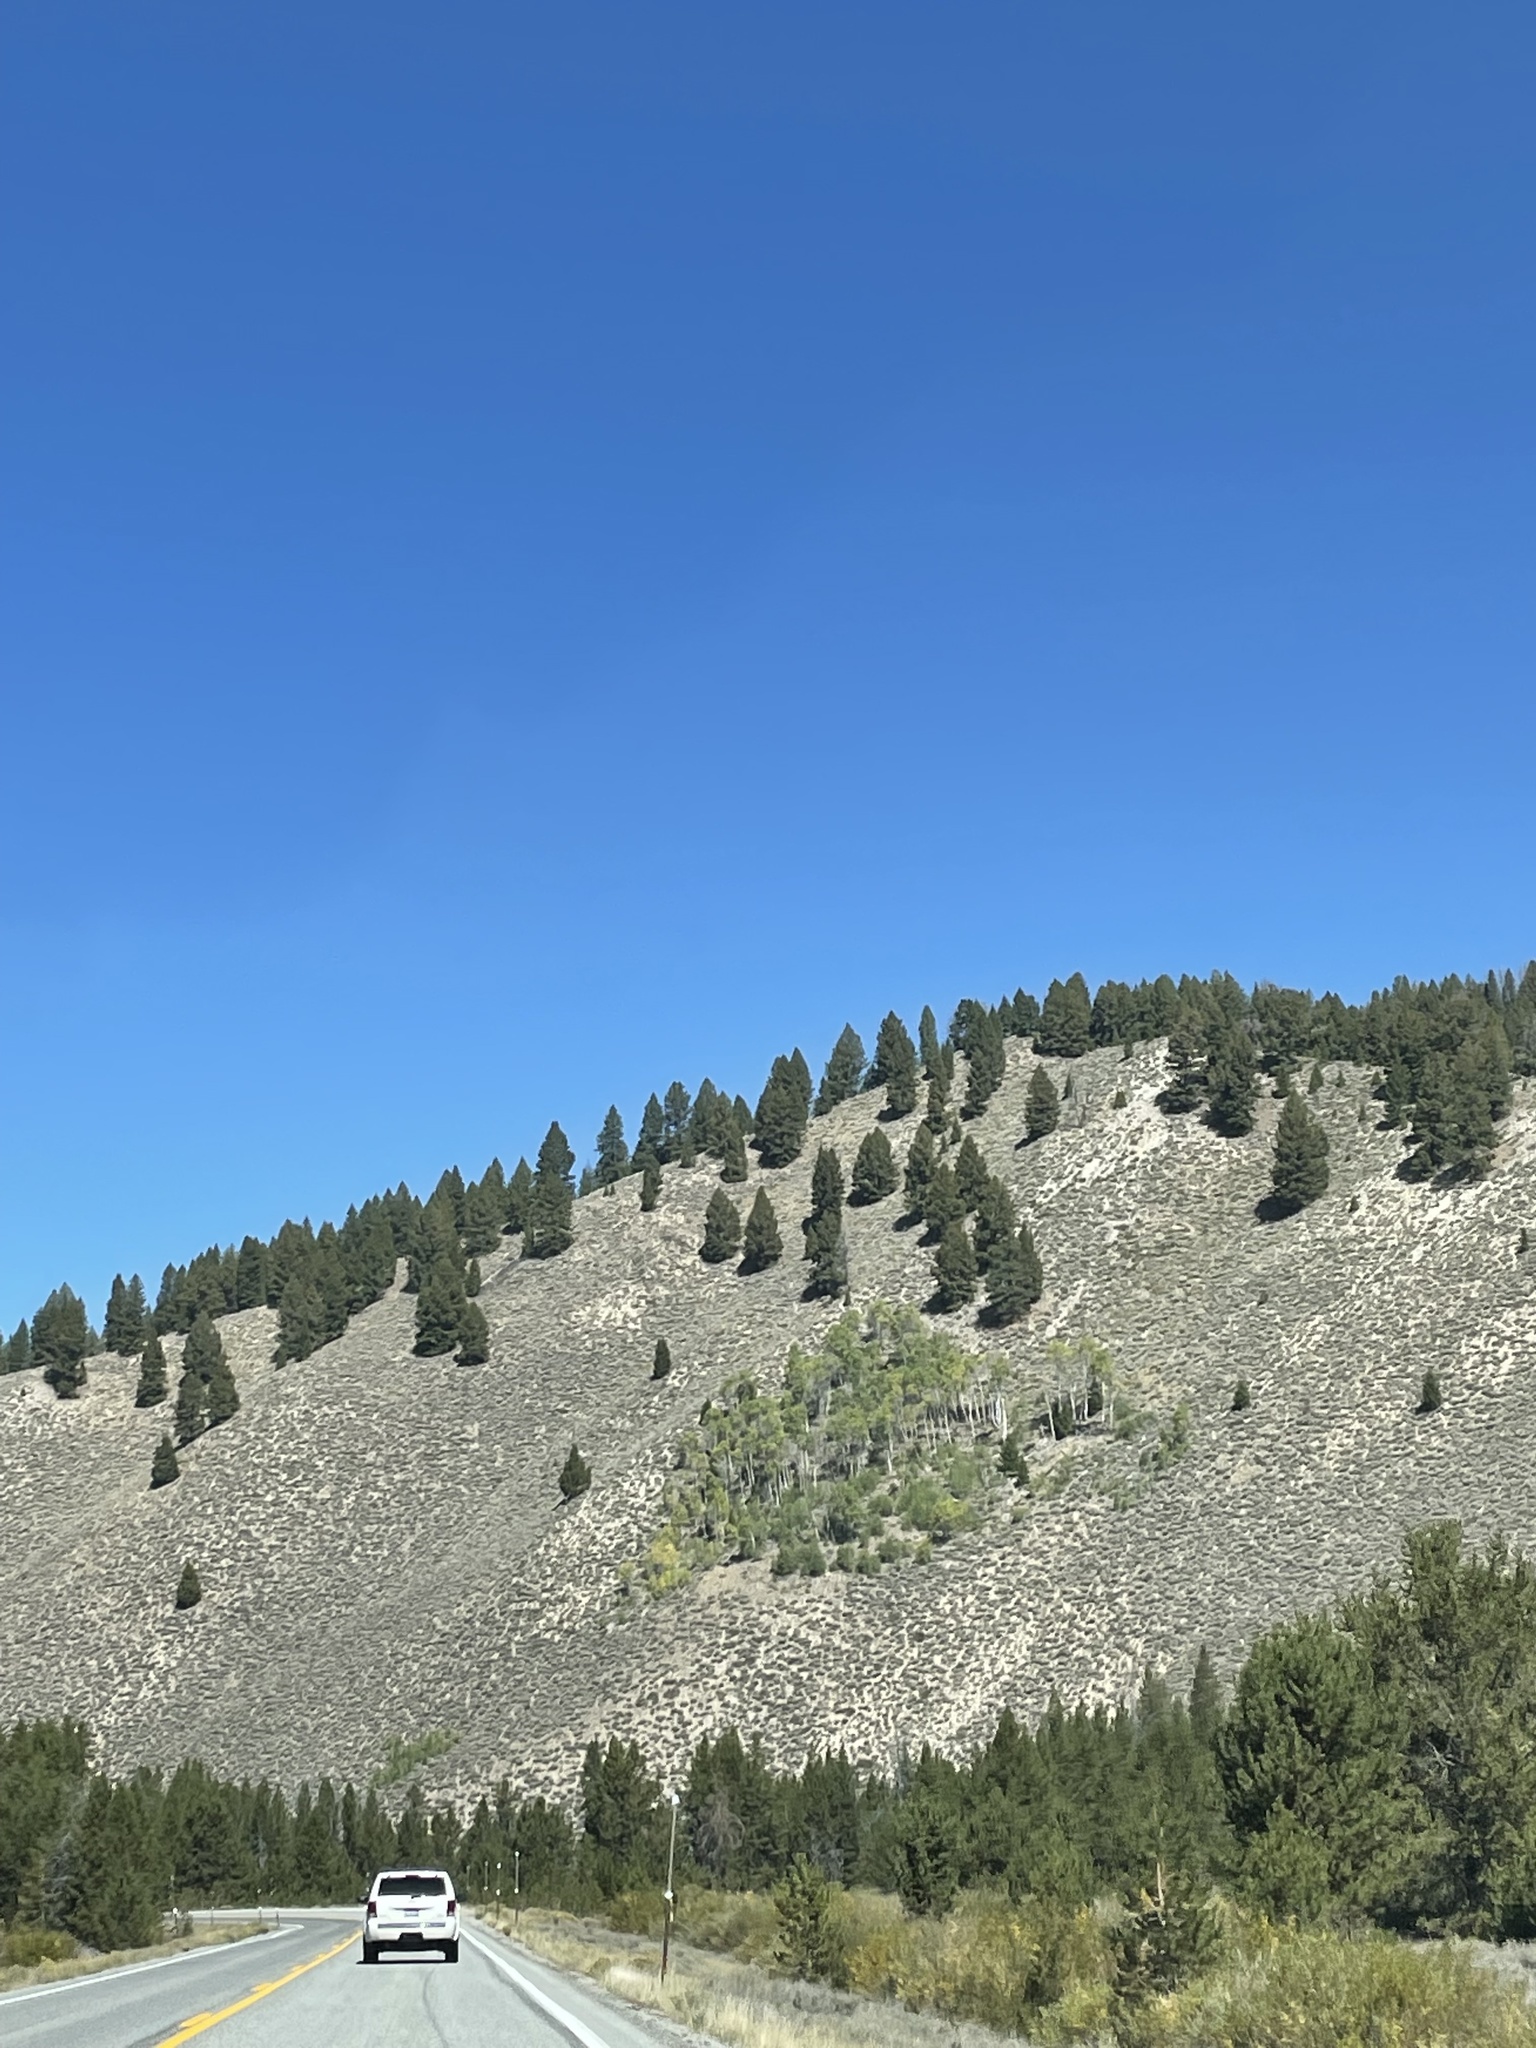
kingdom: Plantae
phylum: Tracheophyta
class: Magnoliopsida
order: Malpighiales
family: Salicaceae
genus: Populus
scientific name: Populus tremuloides
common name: Quaking aspen
